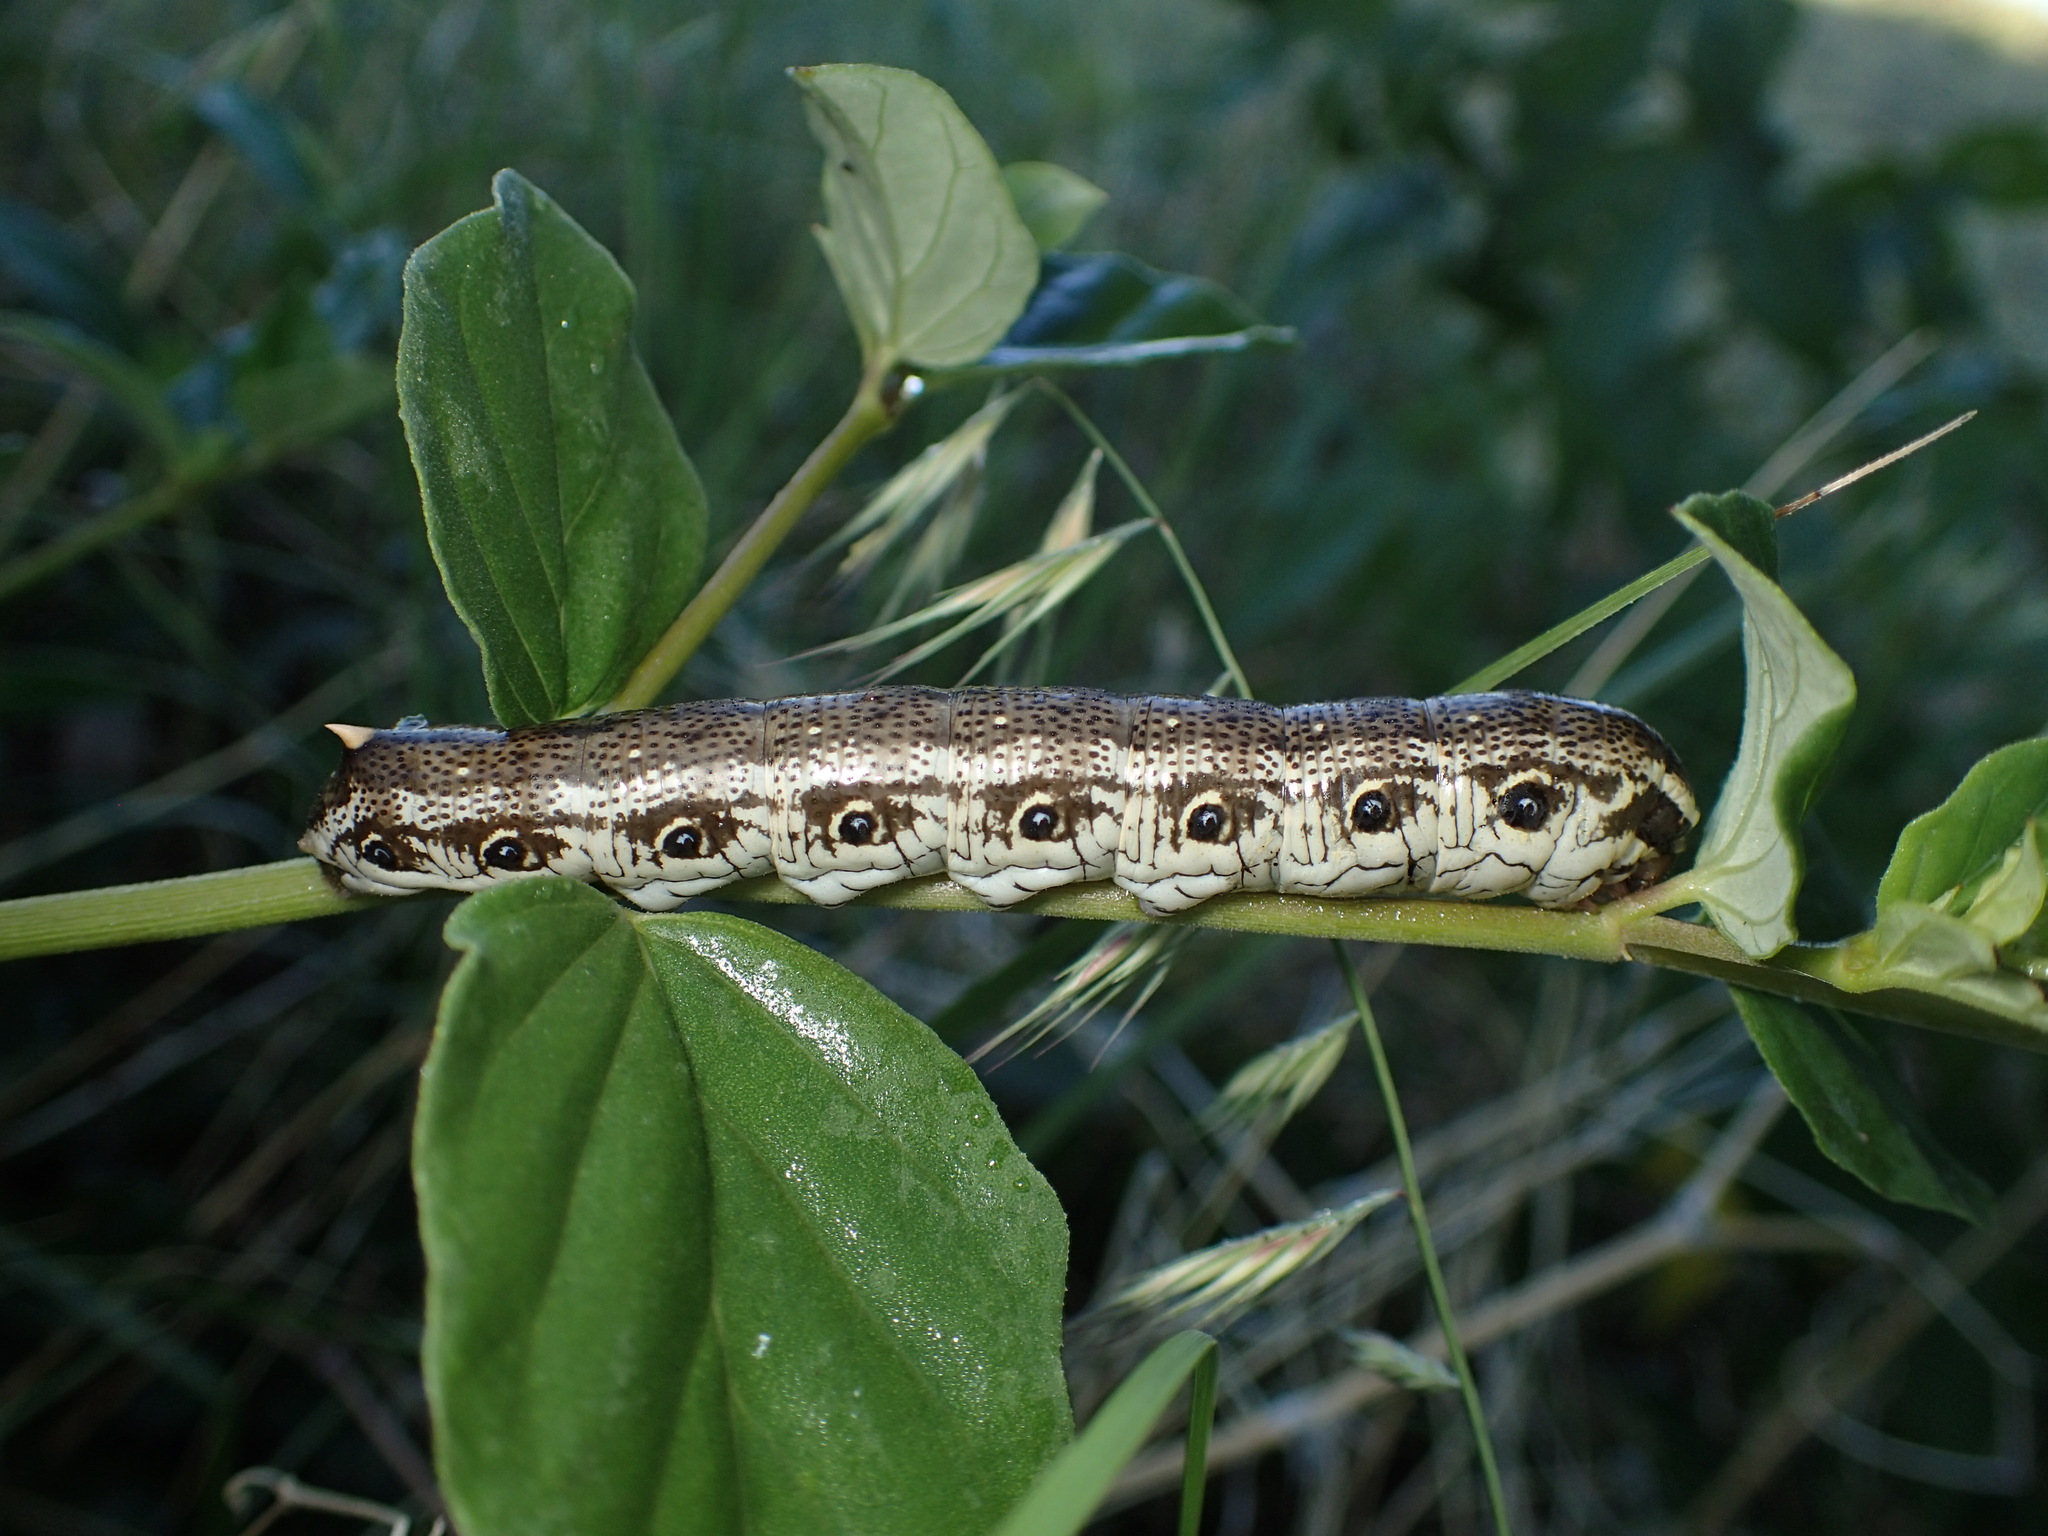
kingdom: Animalia
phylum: Arthropoda
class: Insecta
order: Lepidoptera
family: Sphingidae
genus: Proserpinus
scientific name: Proserpinus terlooii
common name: Terloo's sphinx
